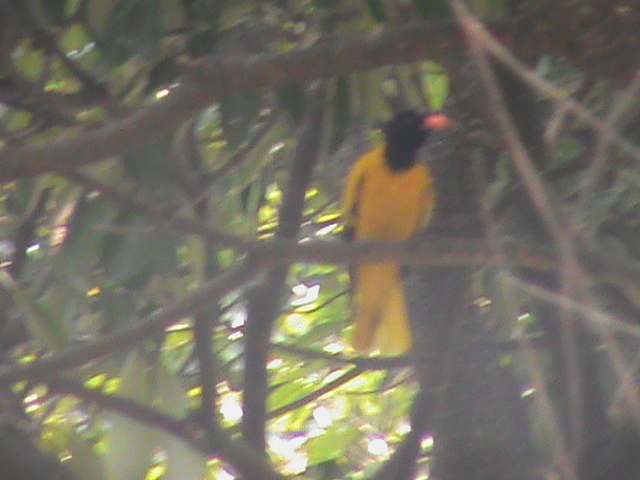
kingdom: Animalia
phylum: Chordata
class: Aves
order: Passeriformes
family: Oriolidae
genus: Oriolus
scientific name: Oriolus xanthornus
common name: Black-hooded oriole
